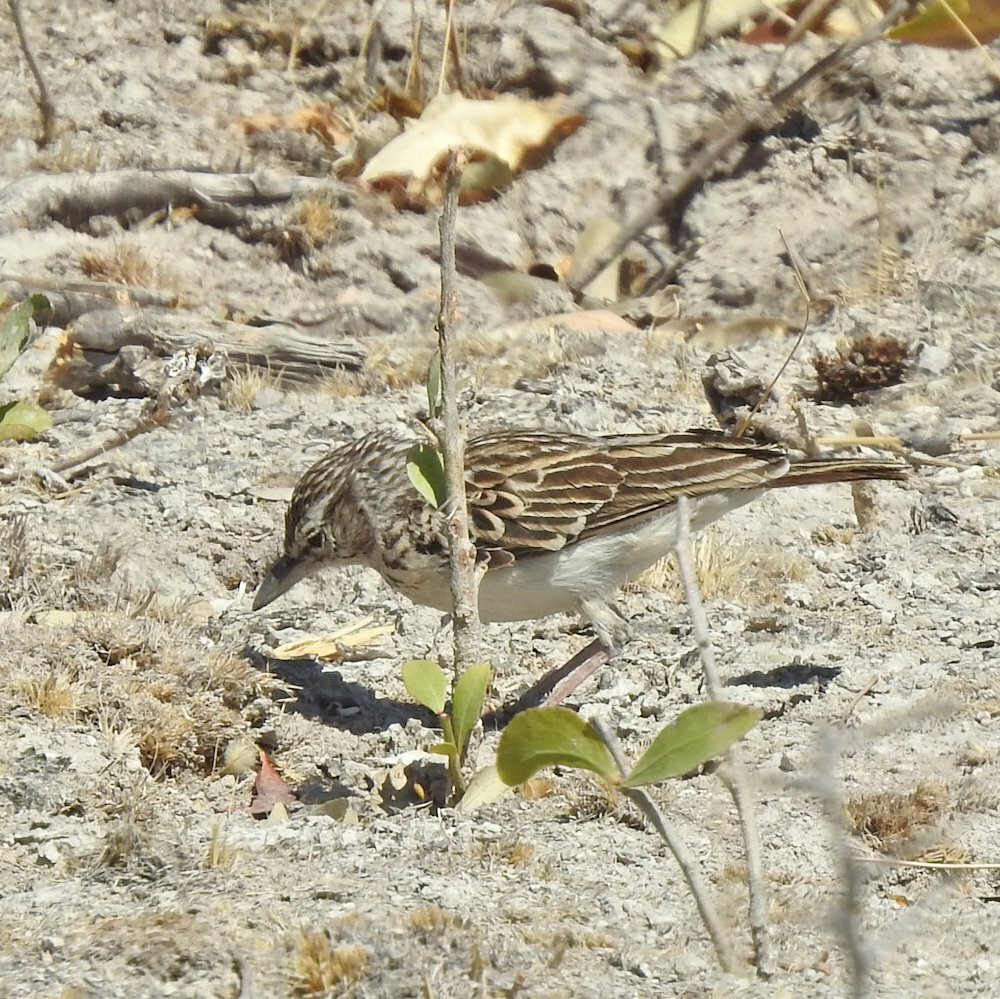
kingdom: Animalia
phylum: Chordata
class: Aves
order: Passeriformes
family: Alaudidae
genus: Calendulauda
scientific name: Calendulauda sabota
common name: Sabota lark
